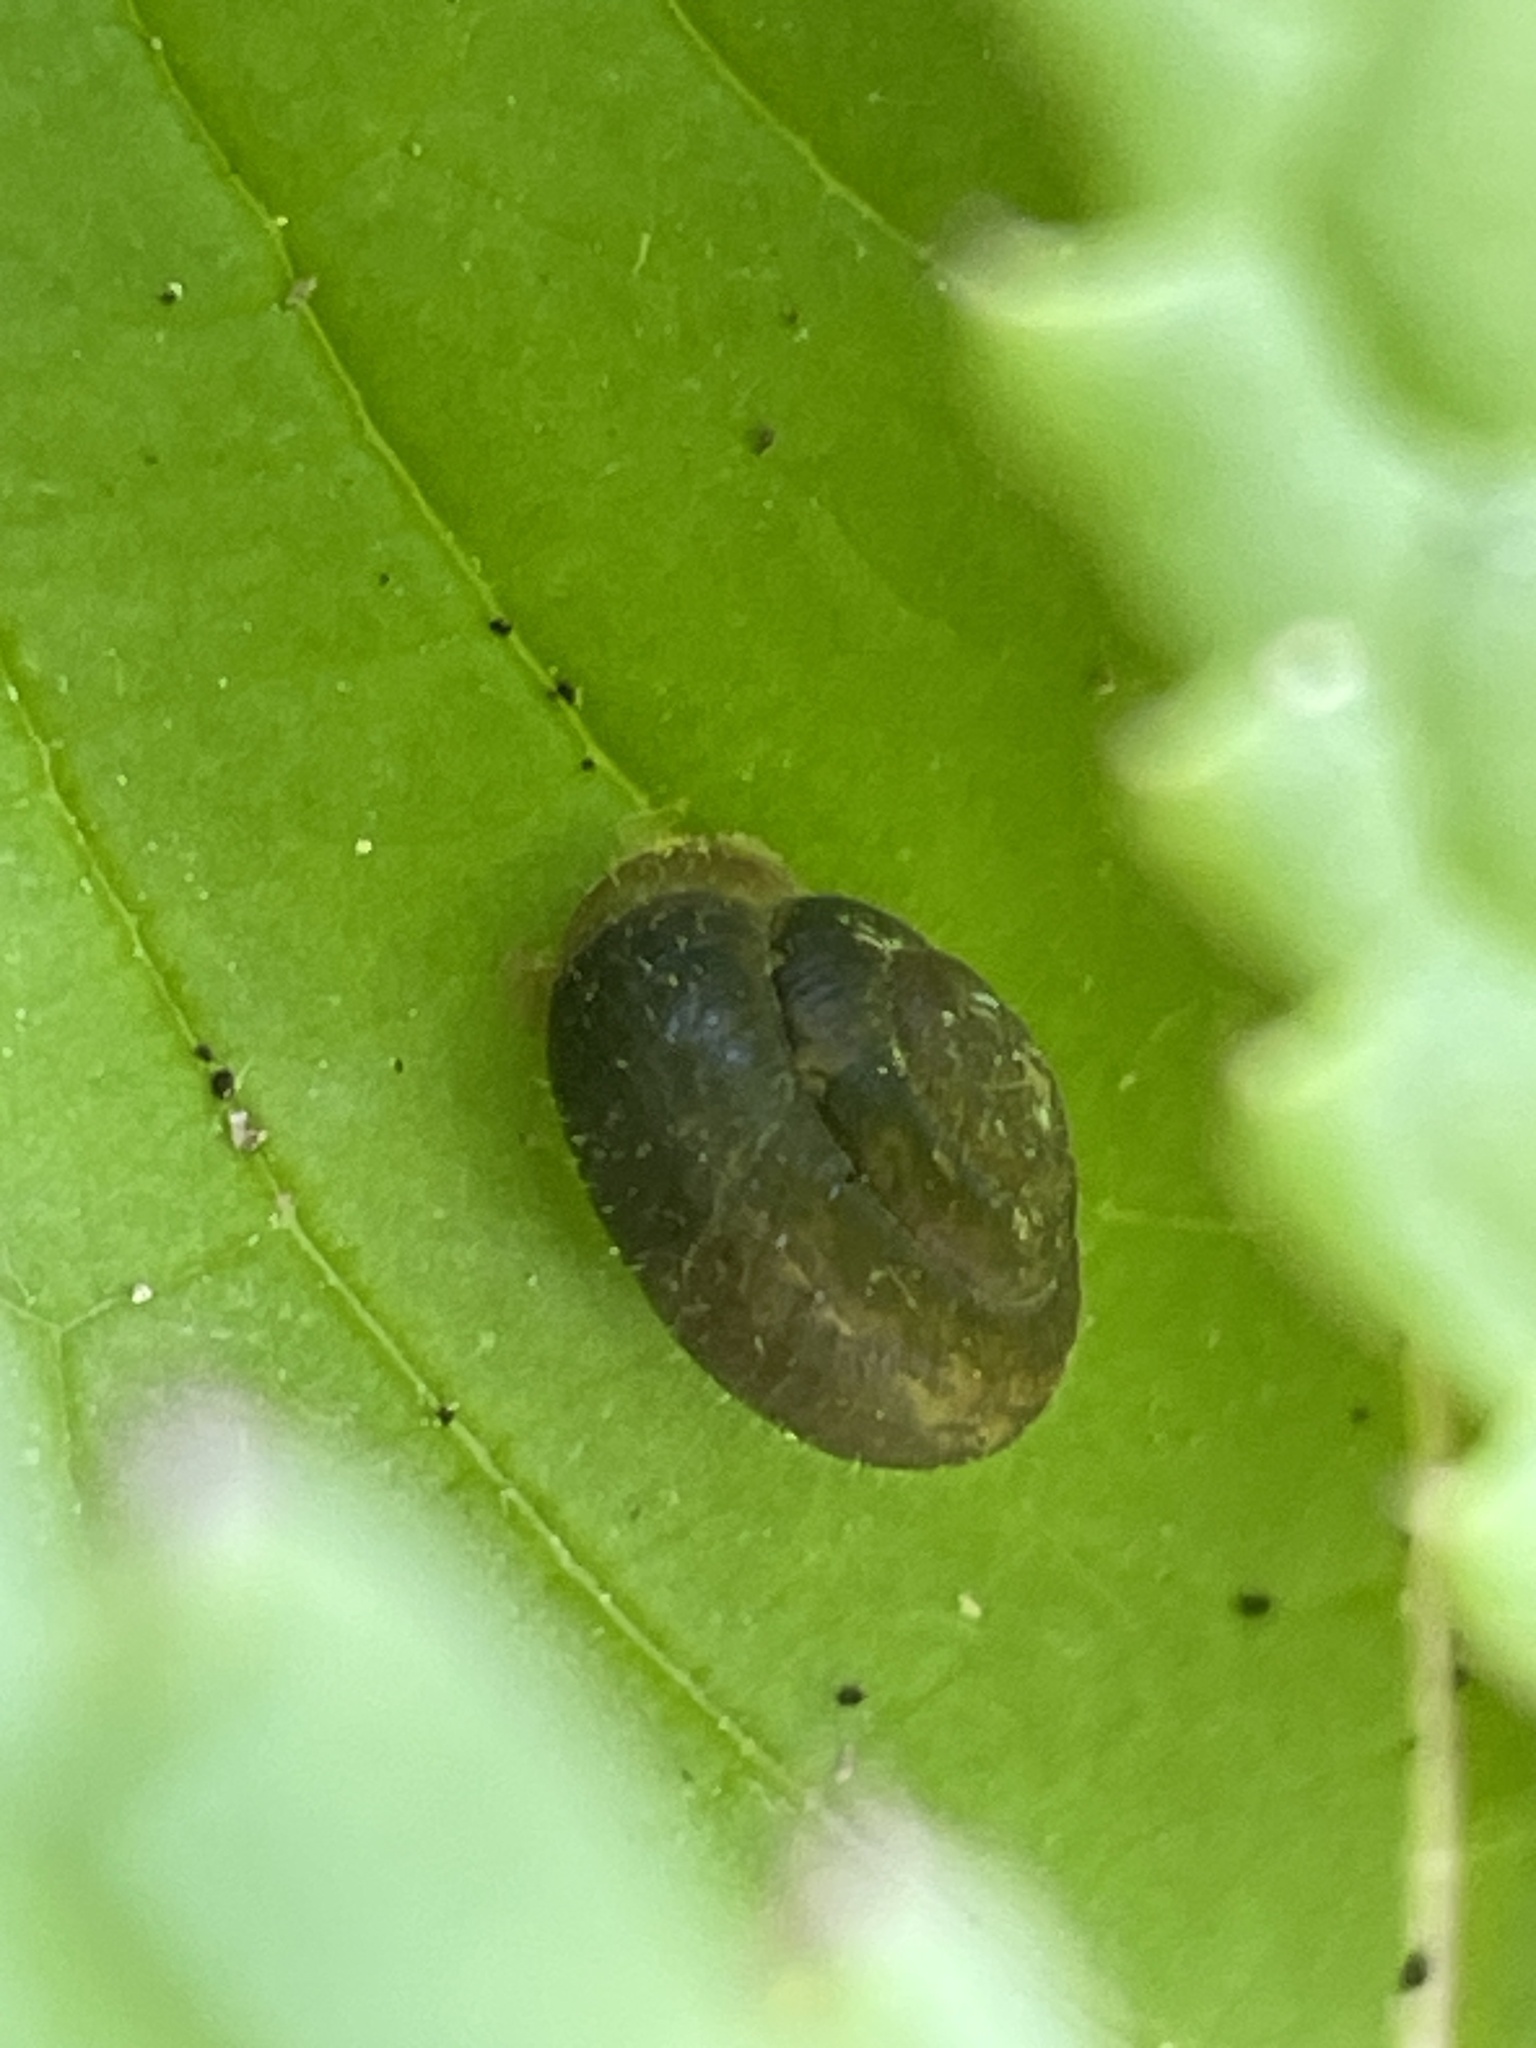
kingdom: Animalia
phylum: Mollusca
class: Gastropoda
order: Stylommatophora
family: Hygromiidae
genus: Trochulus
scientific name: Trochulus hispidus
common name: Hairy snail
